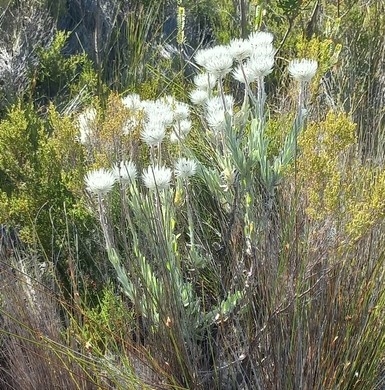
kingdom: Plantae
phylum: Tracheophyta
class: Magnoliopsida
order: Asterales
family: Asteraceae
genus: Syncarpha
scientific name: Syncarpha vestita
